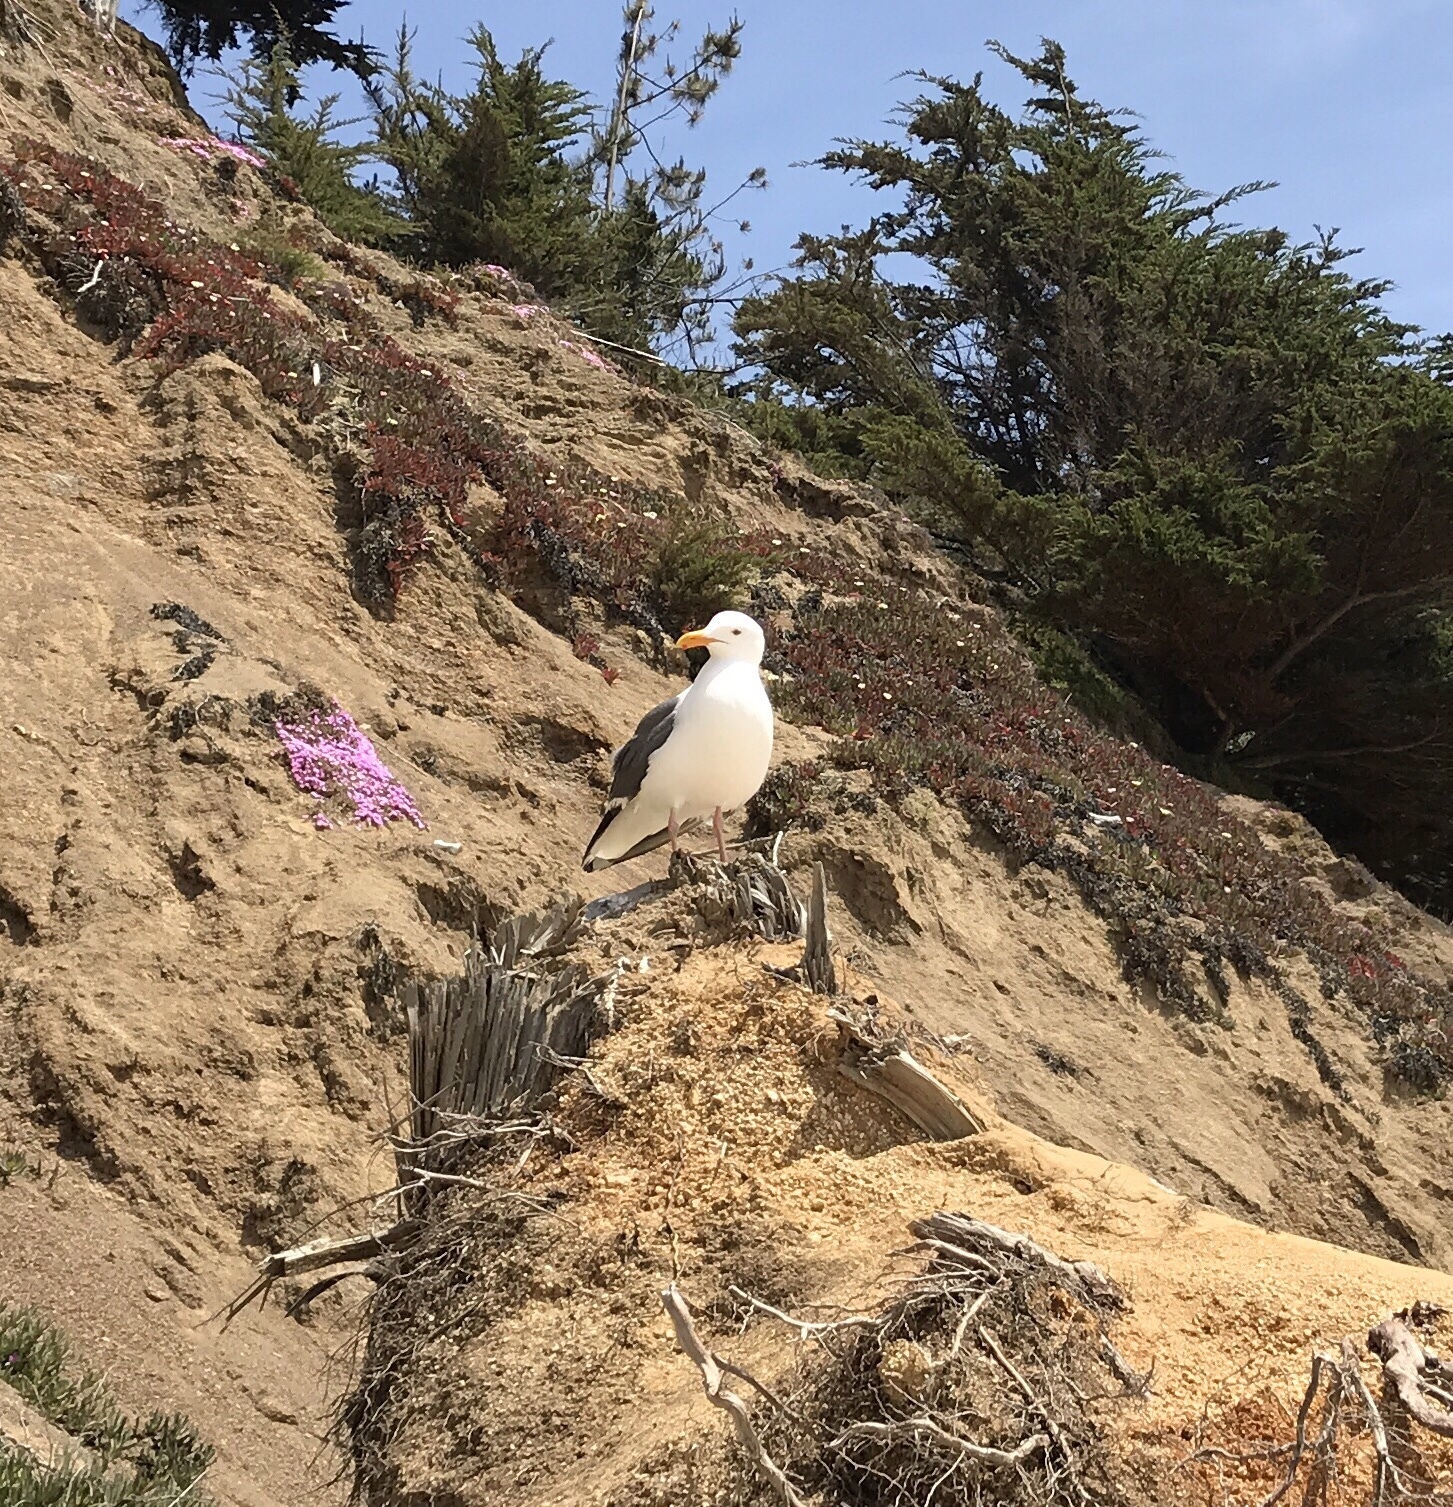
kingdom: Animalia
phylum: Chordata
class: Aves
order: Charadriiformes
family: Laridae
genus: Larus
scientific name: Larus occidentalis
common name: Western gull
